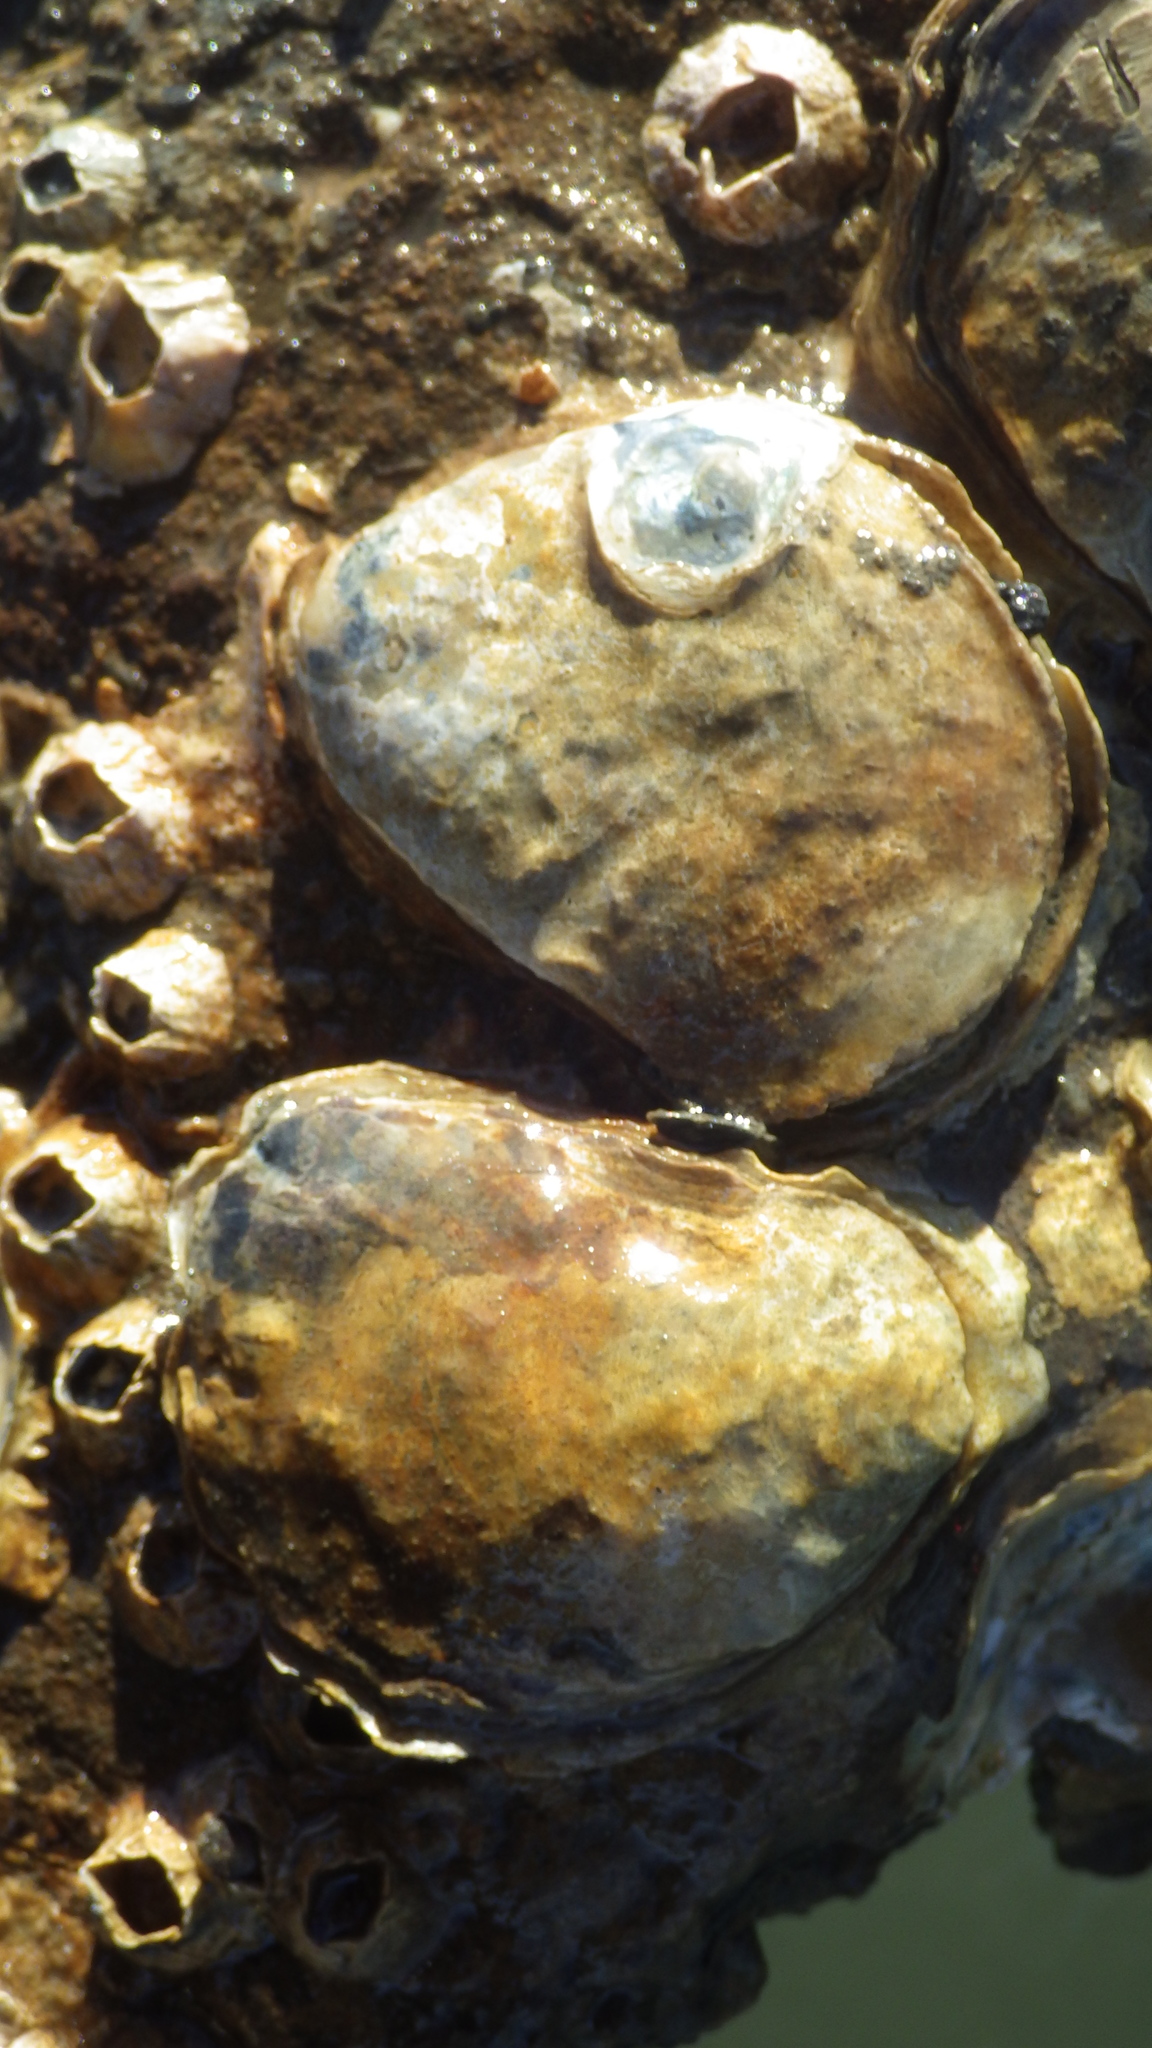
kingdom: Animalia
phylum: Mollusca
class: Bivalvia
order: Ostreida
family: Ostreidae
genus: Ostrea
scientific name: Ostrea lurida
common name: Olympia flat oyster
